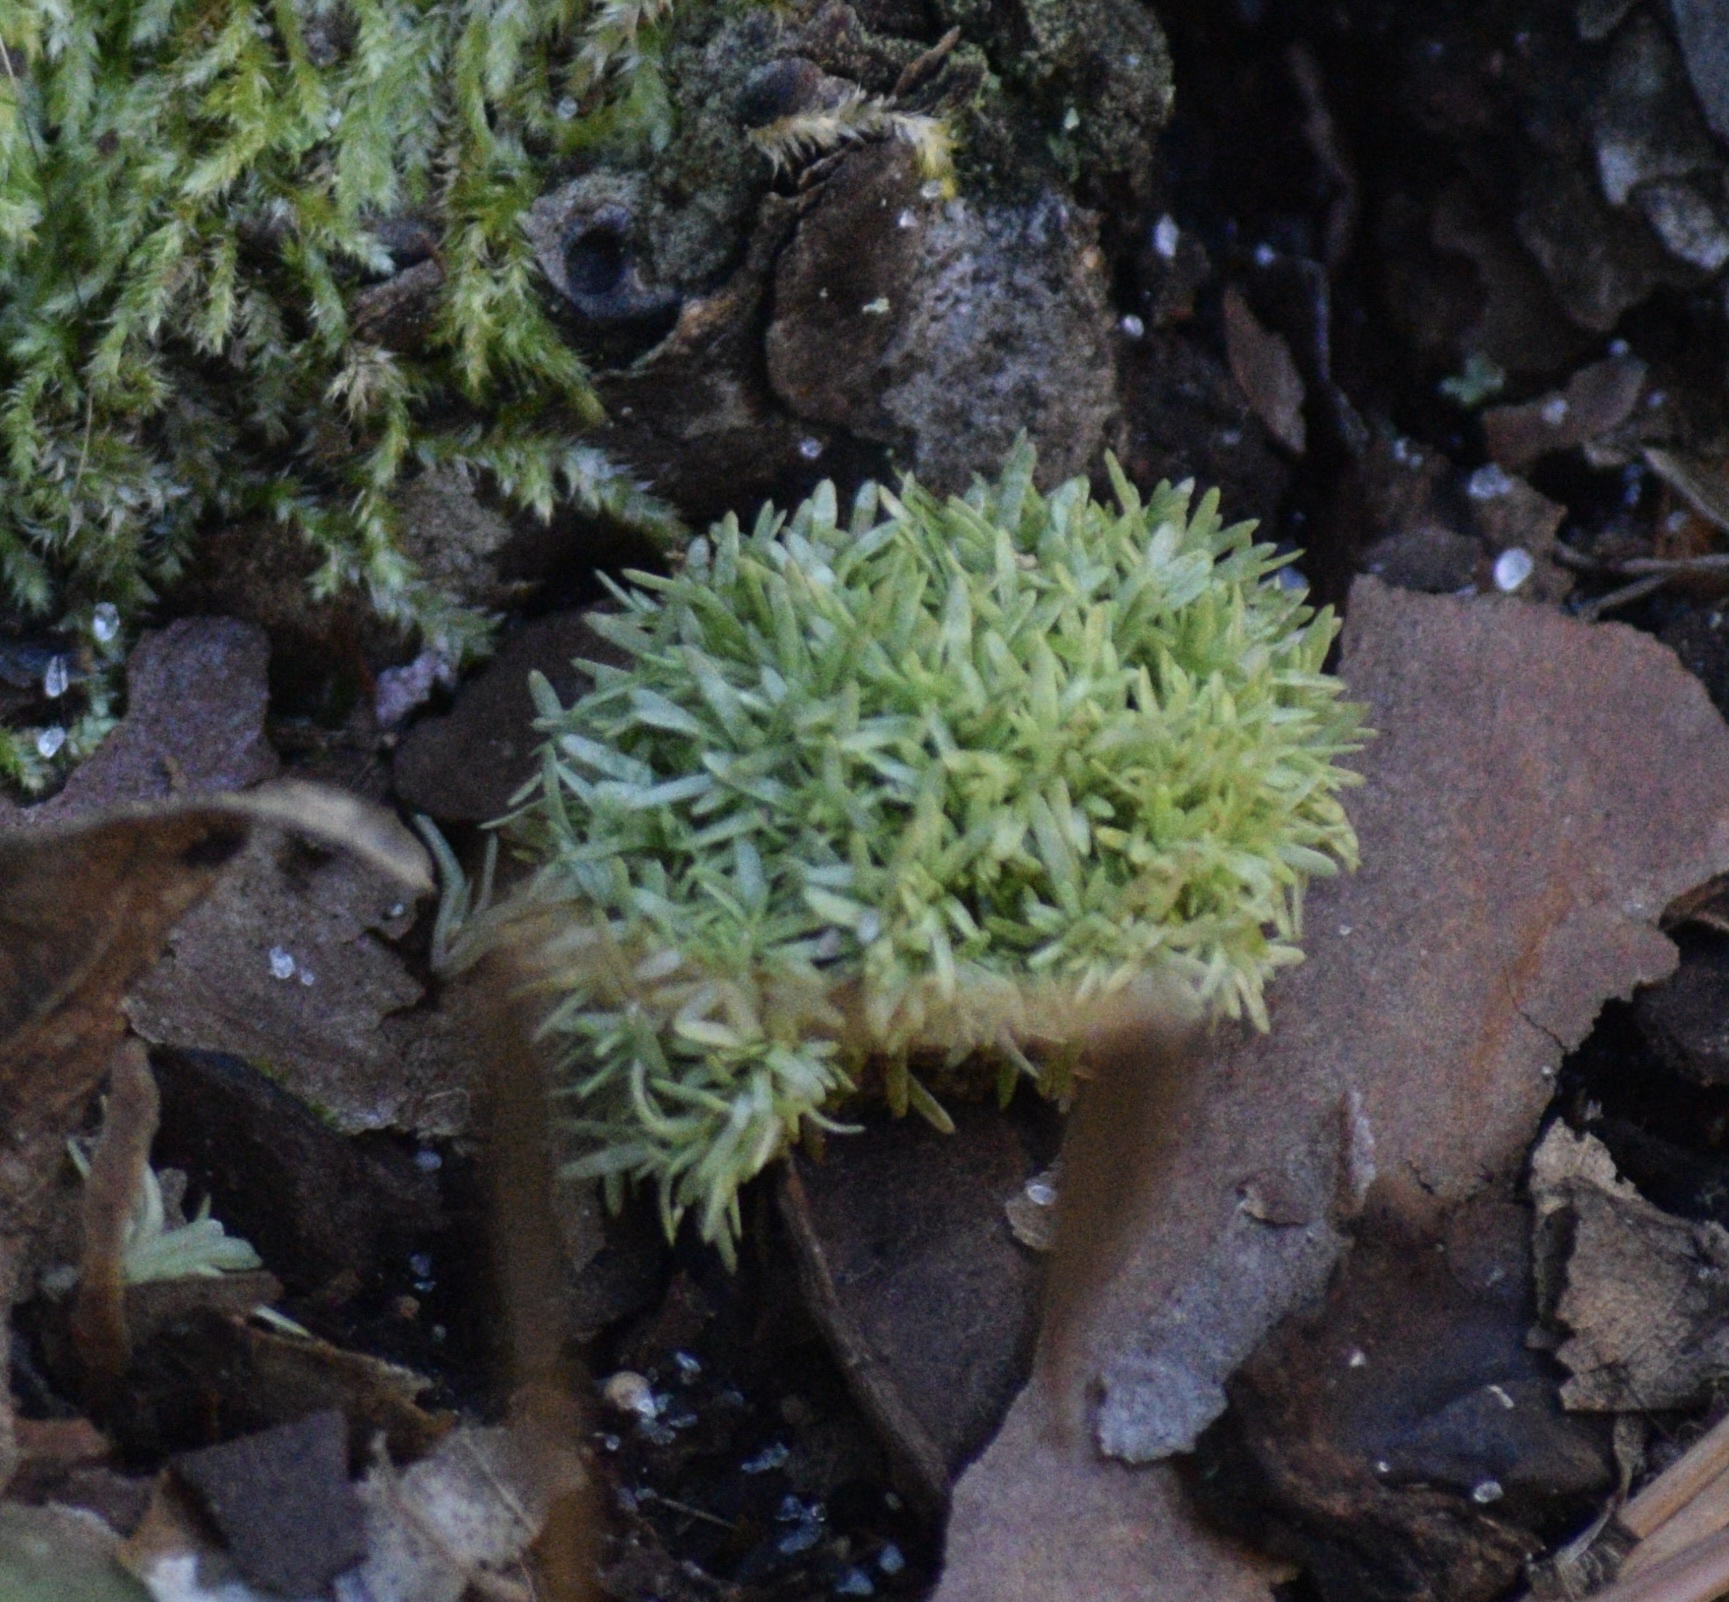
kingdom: Plantae
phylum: Bryophyta
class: Bryopsida
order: Dicranales
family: Octoblepharaceae
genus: Octoblepharum
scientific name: Octoblepharum albidum
